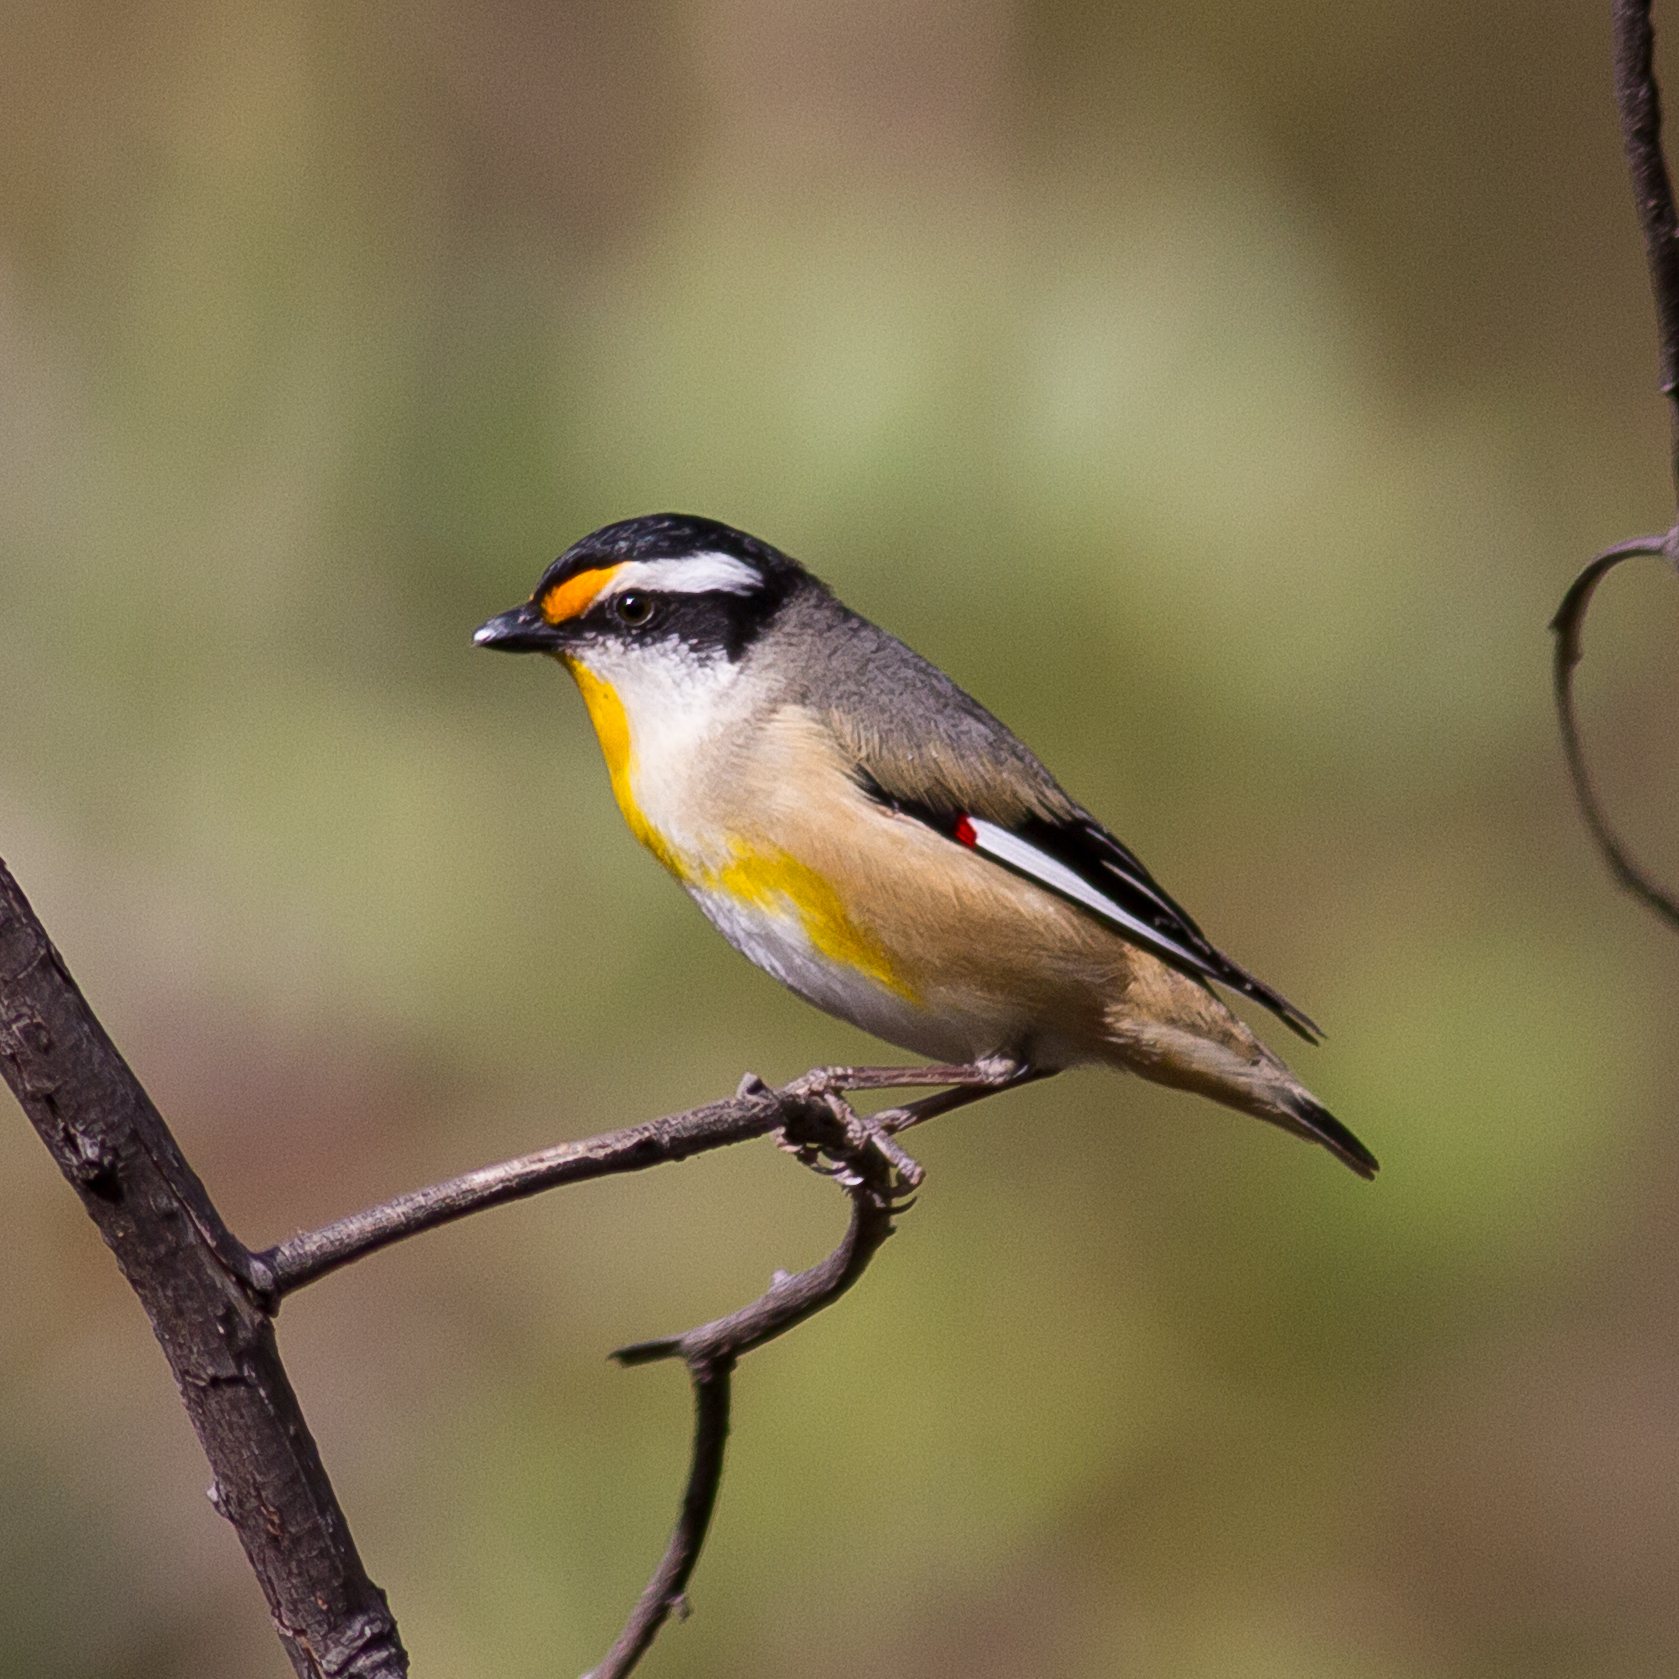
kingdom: Animalia
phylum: Chordata
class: Aves
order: Passeriformes
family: Pardalotidae
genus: Pardalotus
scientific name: Pardalotus striatus
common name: Striated pardalote
